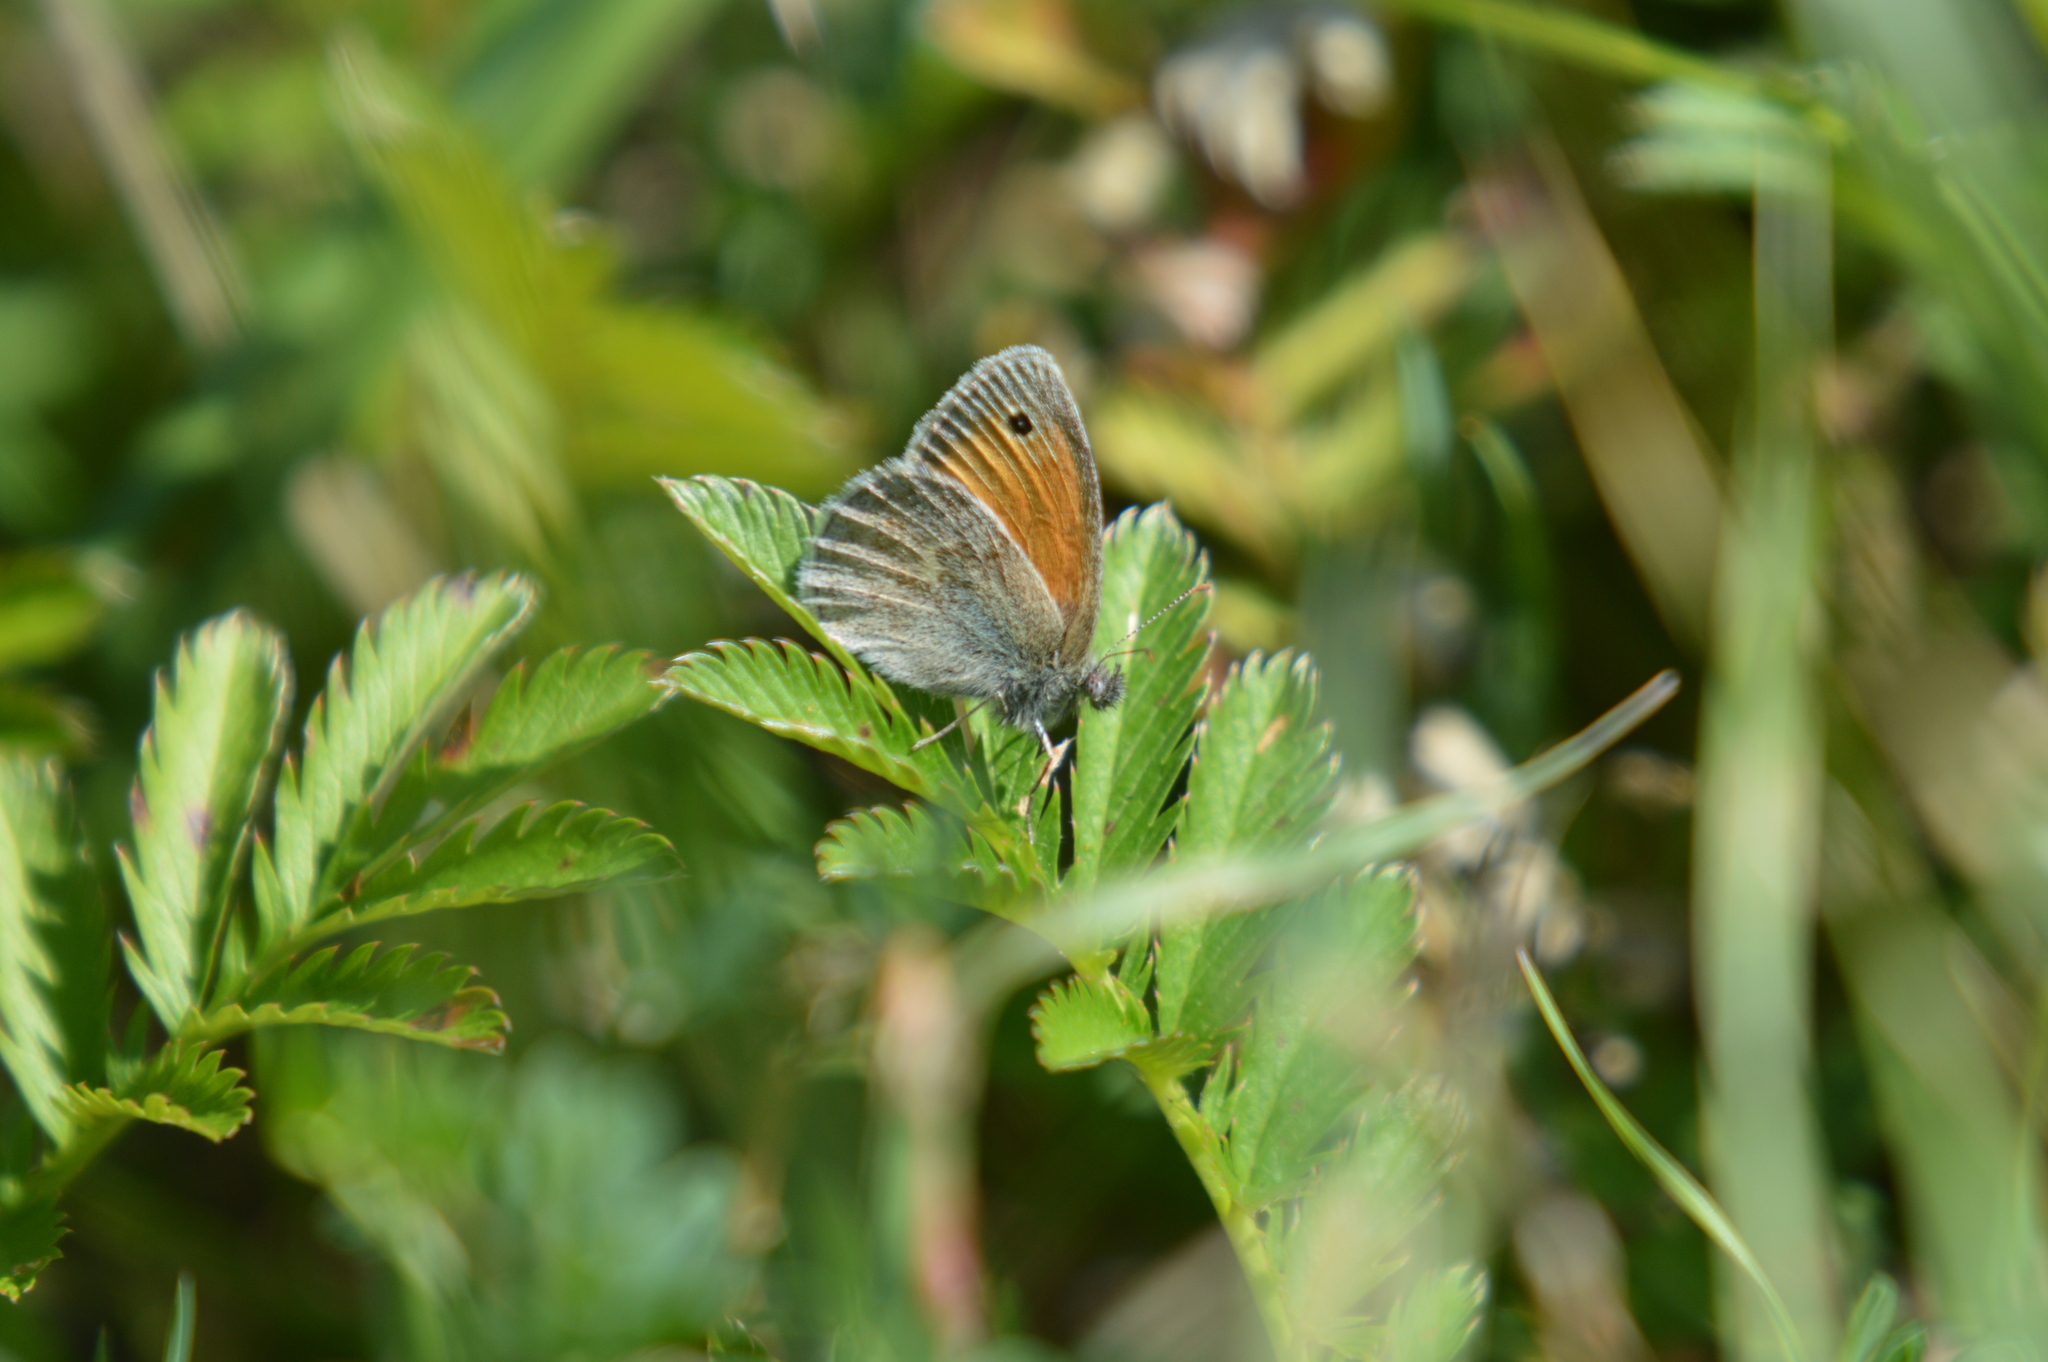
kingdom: Animalia
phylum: Arthropoda
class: Insecta
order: Lepidoptera
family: Nymphalidae
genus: Coenonympha
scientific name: Coenonympha pamphilus
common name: Small heath
